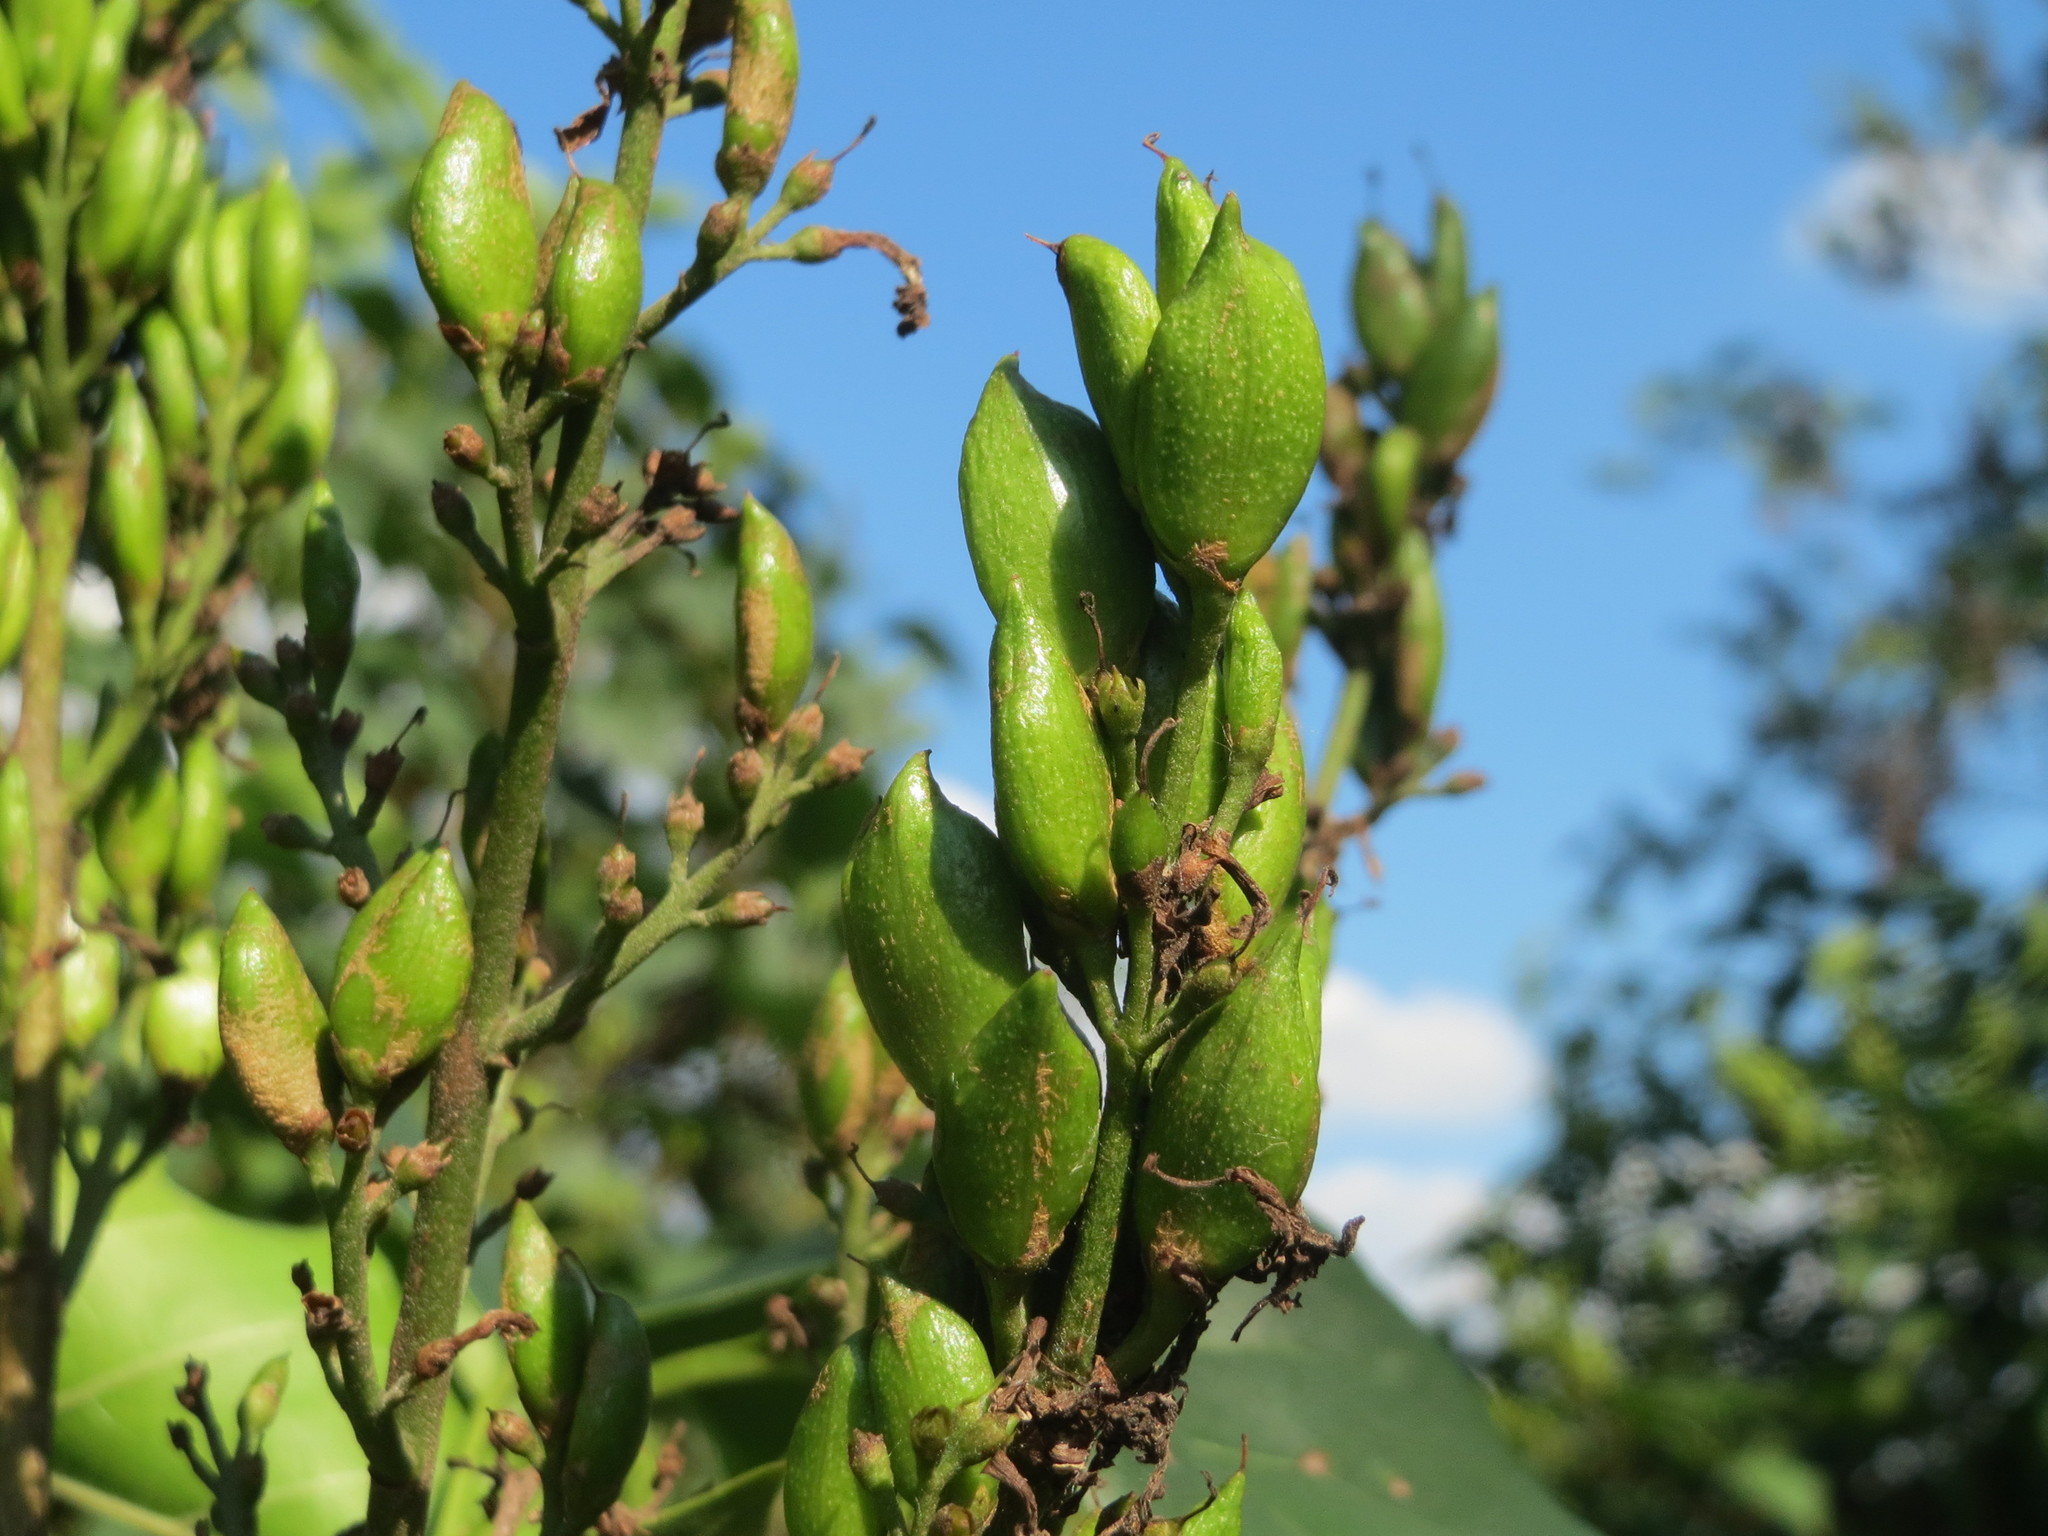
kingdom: Plantae
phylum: Tracheophyta
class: Magnoliopsida
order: Lamiales
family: Oleaceae
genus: Syringa
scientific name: Syringa vulgaris
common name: Common lilac
